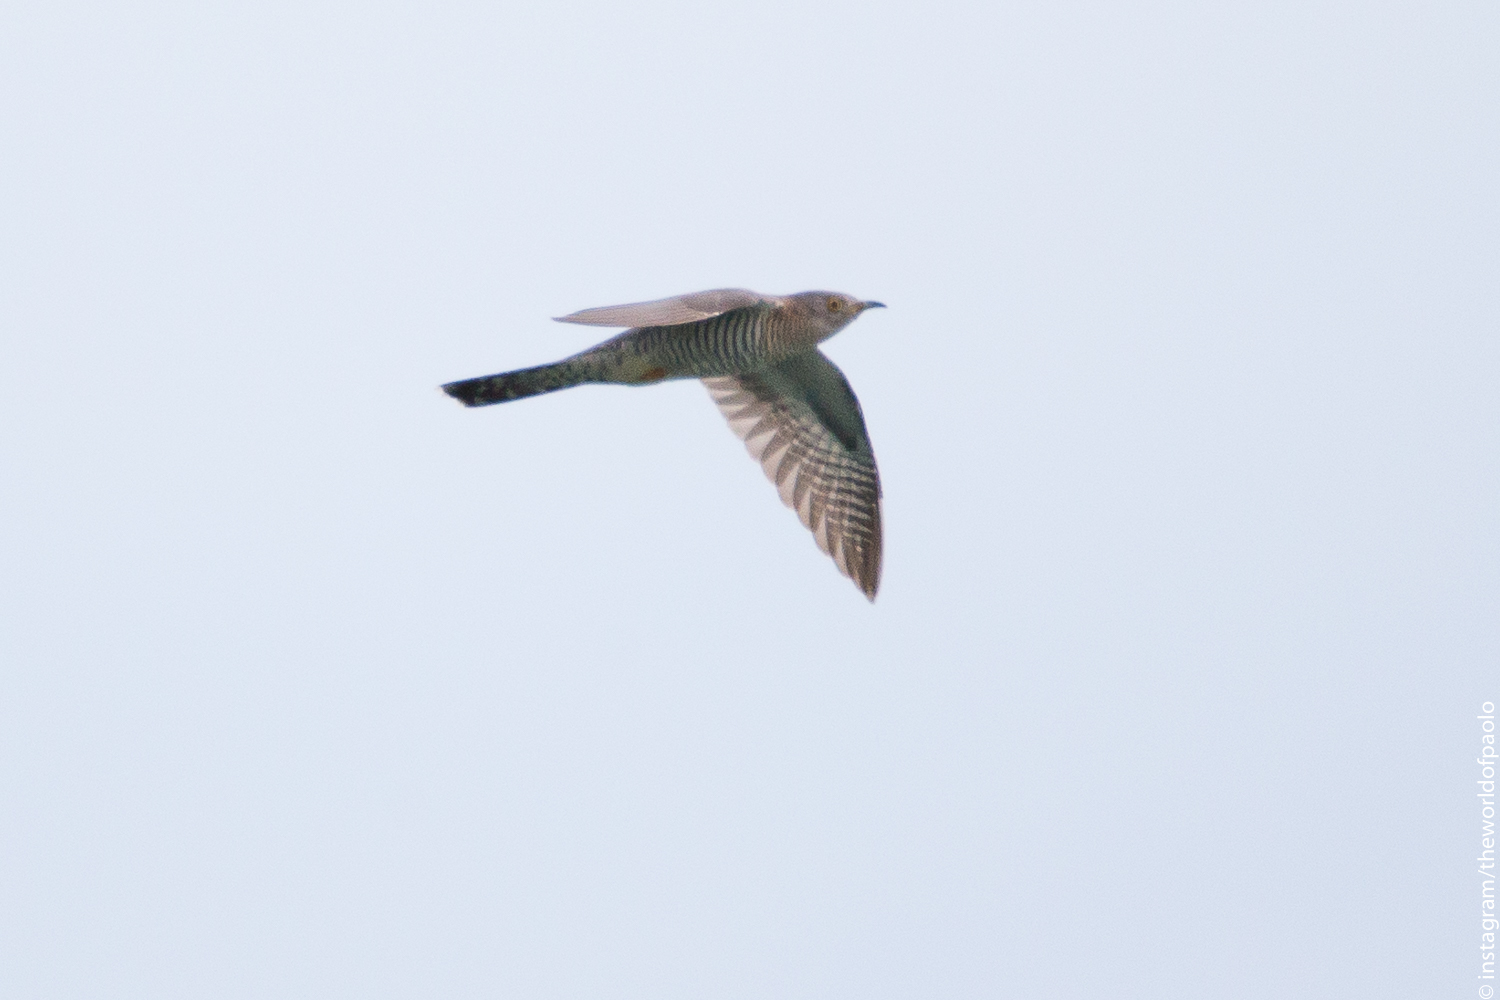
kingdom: Animalia
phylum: Chordata
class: Aves
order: Cuculiformes
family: Cuculidae
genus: Cuculus
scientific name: Cuculus canorus
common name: Common cuckoo
